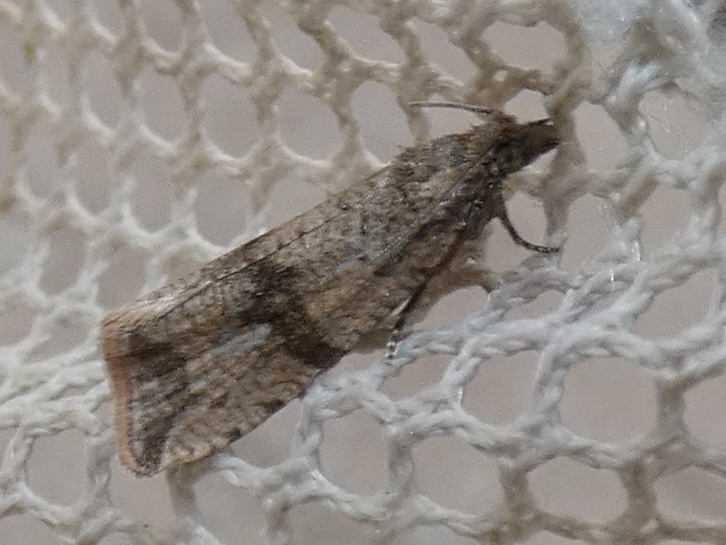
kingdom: Animalia
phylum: Arthropoda
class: Insecta
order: Lepidoptera
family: Tortricidae
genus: Celypha
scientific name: Celypha striana
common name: Barred marble
